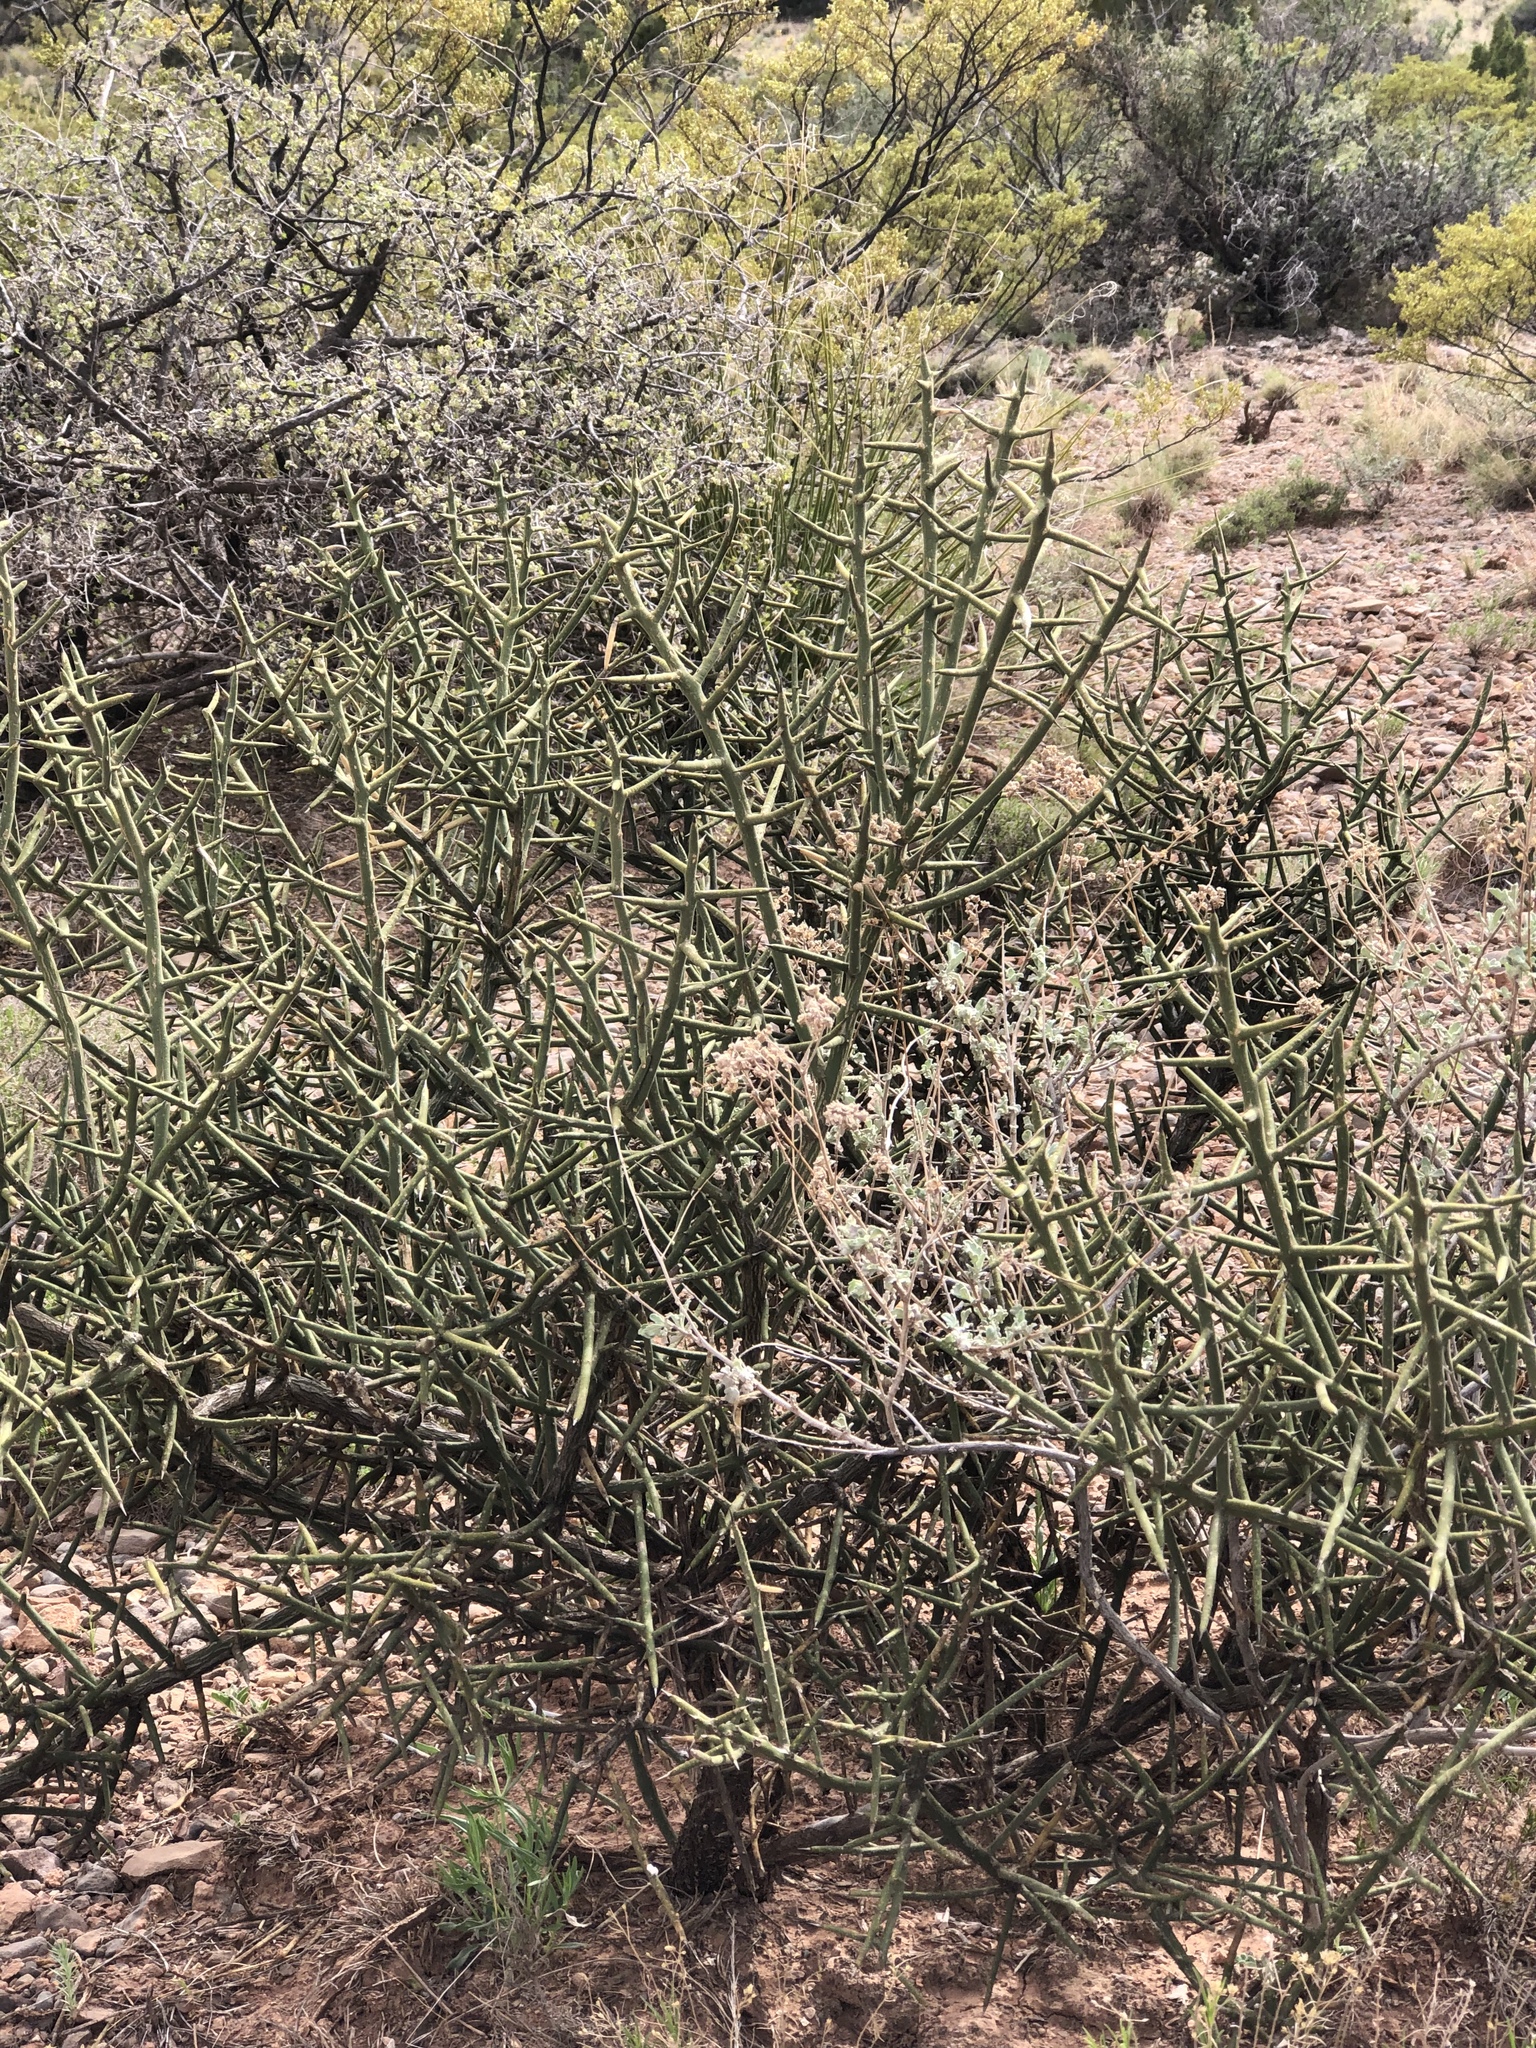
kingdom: Plantae
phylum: Tracheophyta
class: Magnoliopsida
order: Brassicales
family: Koeberliniaceae
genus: Koeberlinia
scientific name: Koeberlinia spinosa
